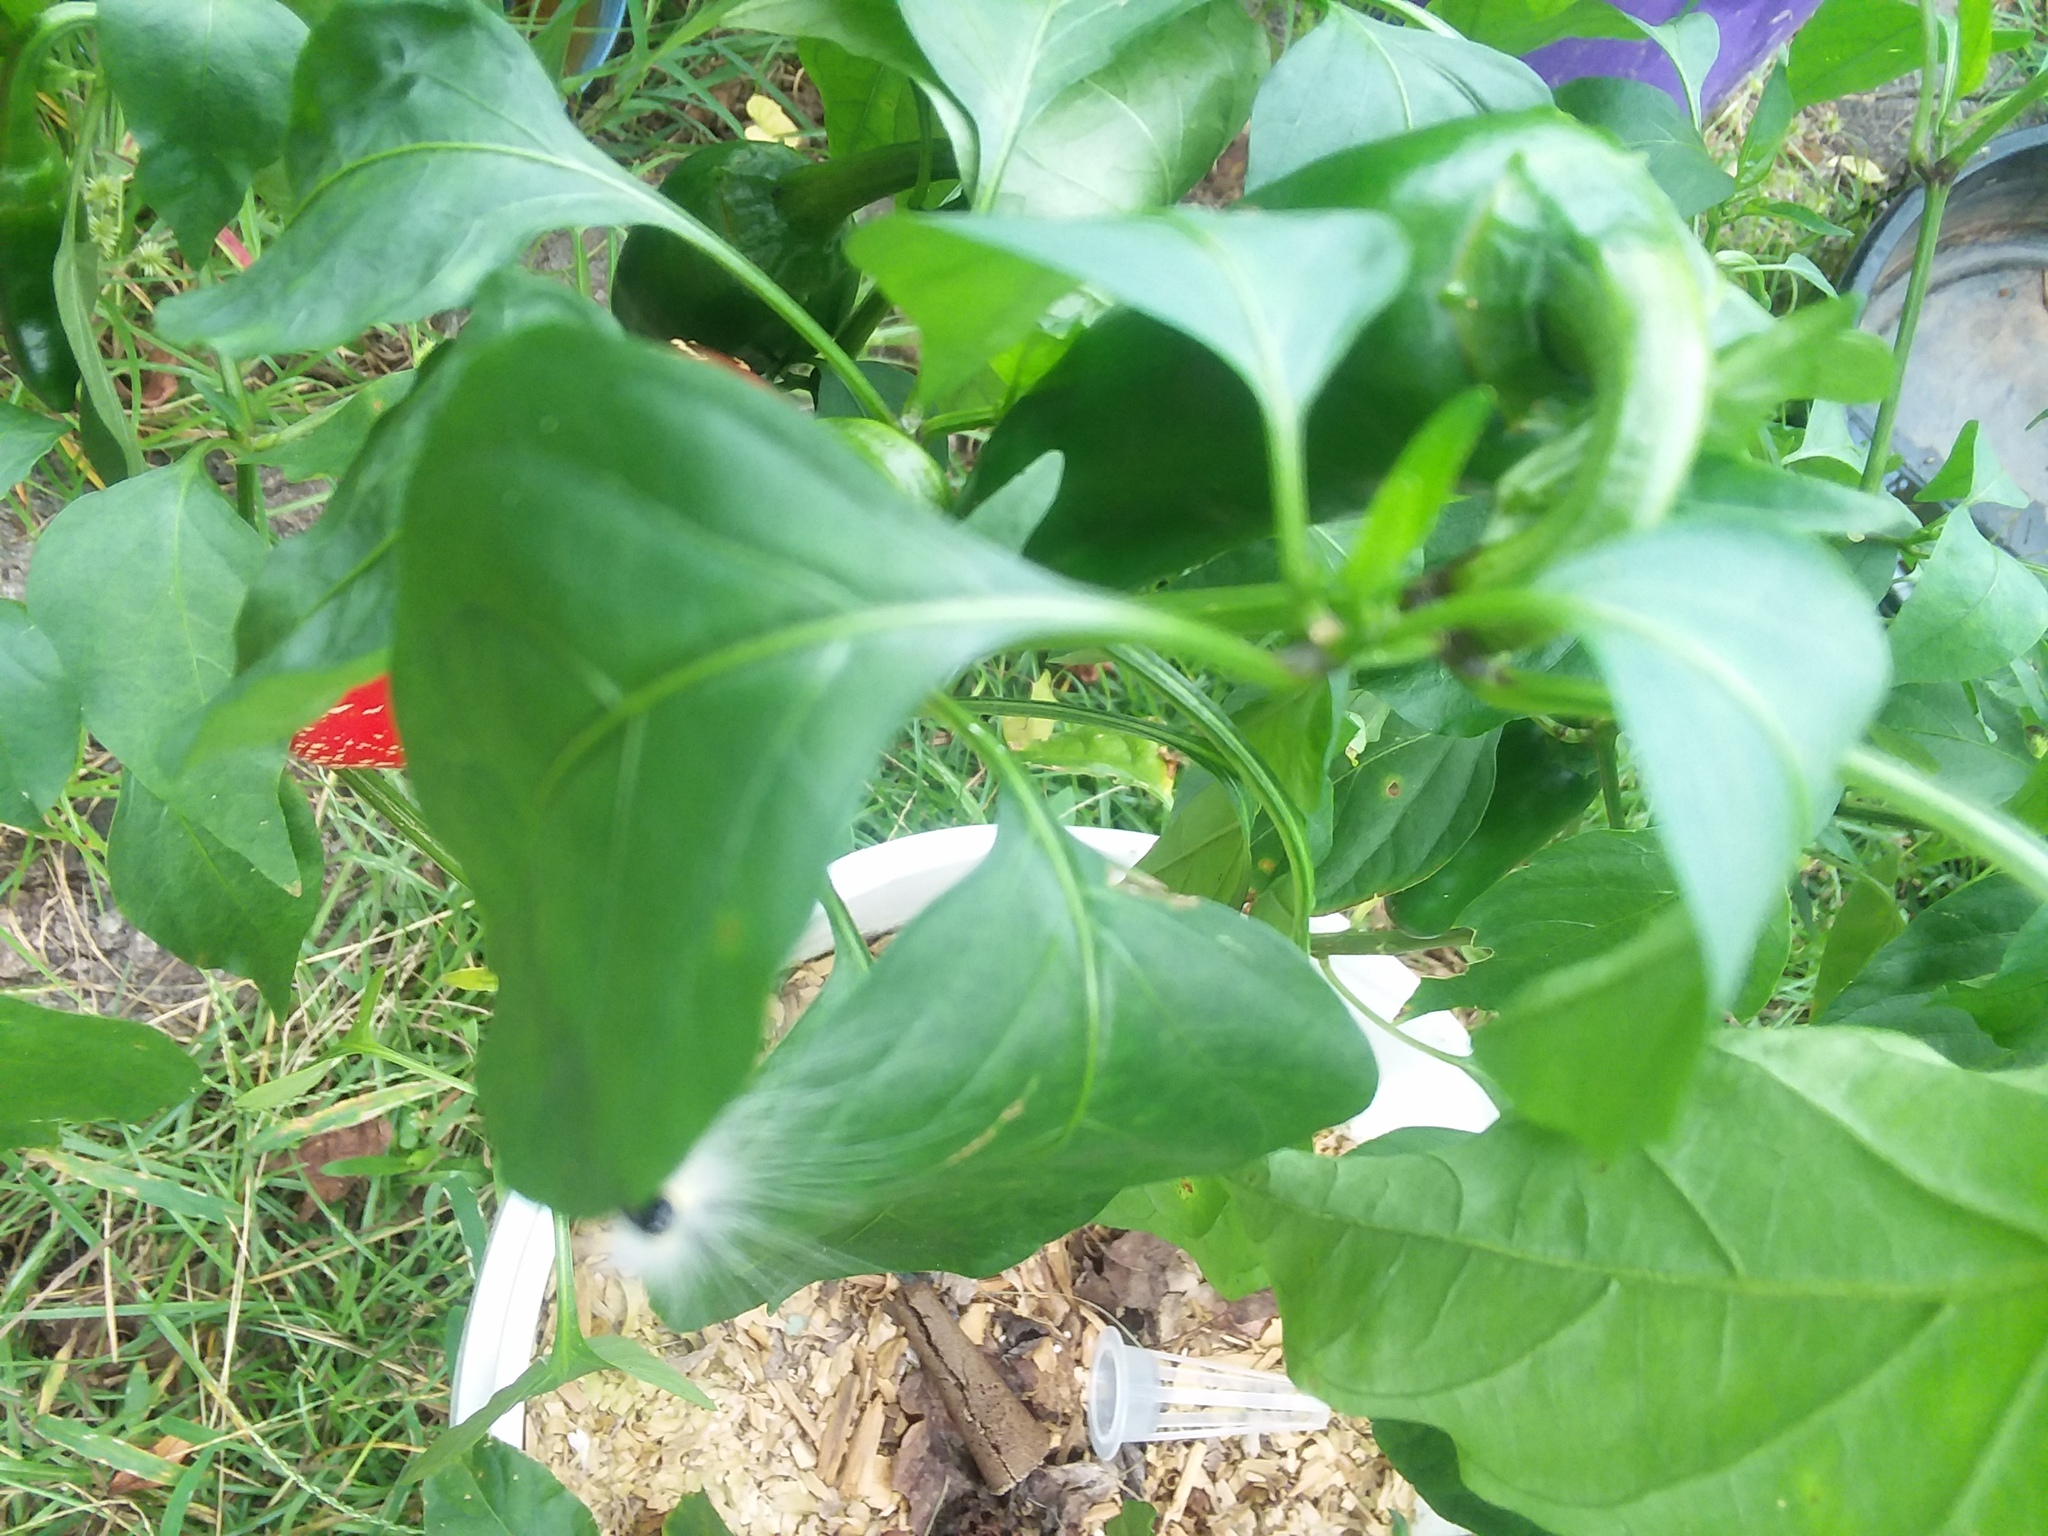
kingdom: Animalia
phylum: Arthropoda
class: Insecta
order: Lepidoptera
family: Erebidae
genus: Hyphantria
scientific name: Hyphantria cunea
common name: American white moth
